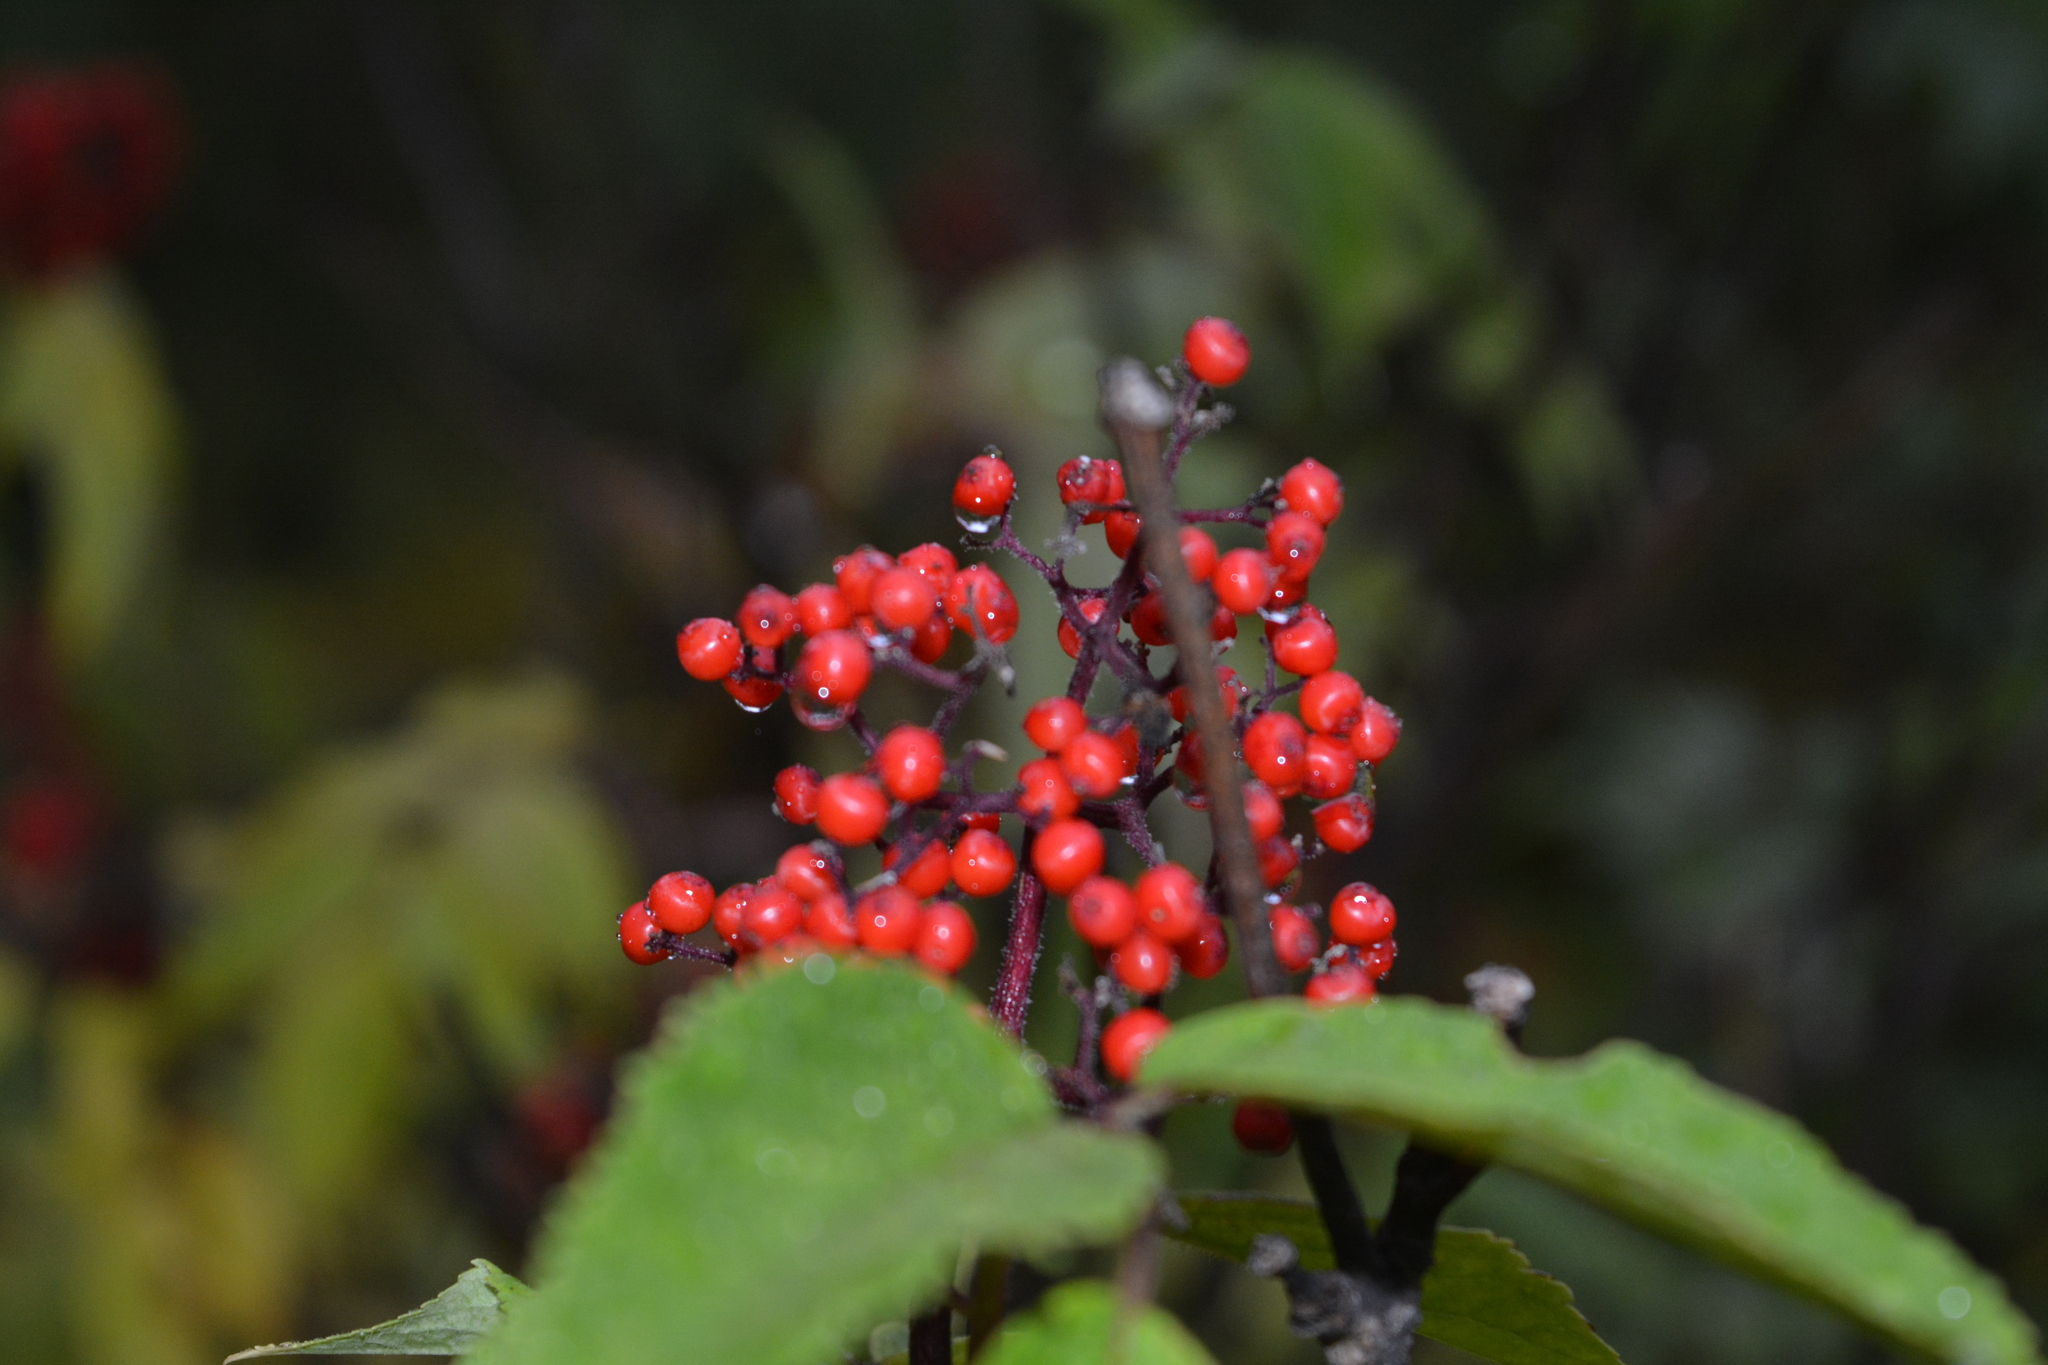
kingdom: Plantae
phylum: Tracheophyta
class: Magnoliopsida
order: Dipsacales
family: Viburnaceae
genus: Sambucus
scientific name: Sambucus sibirica
